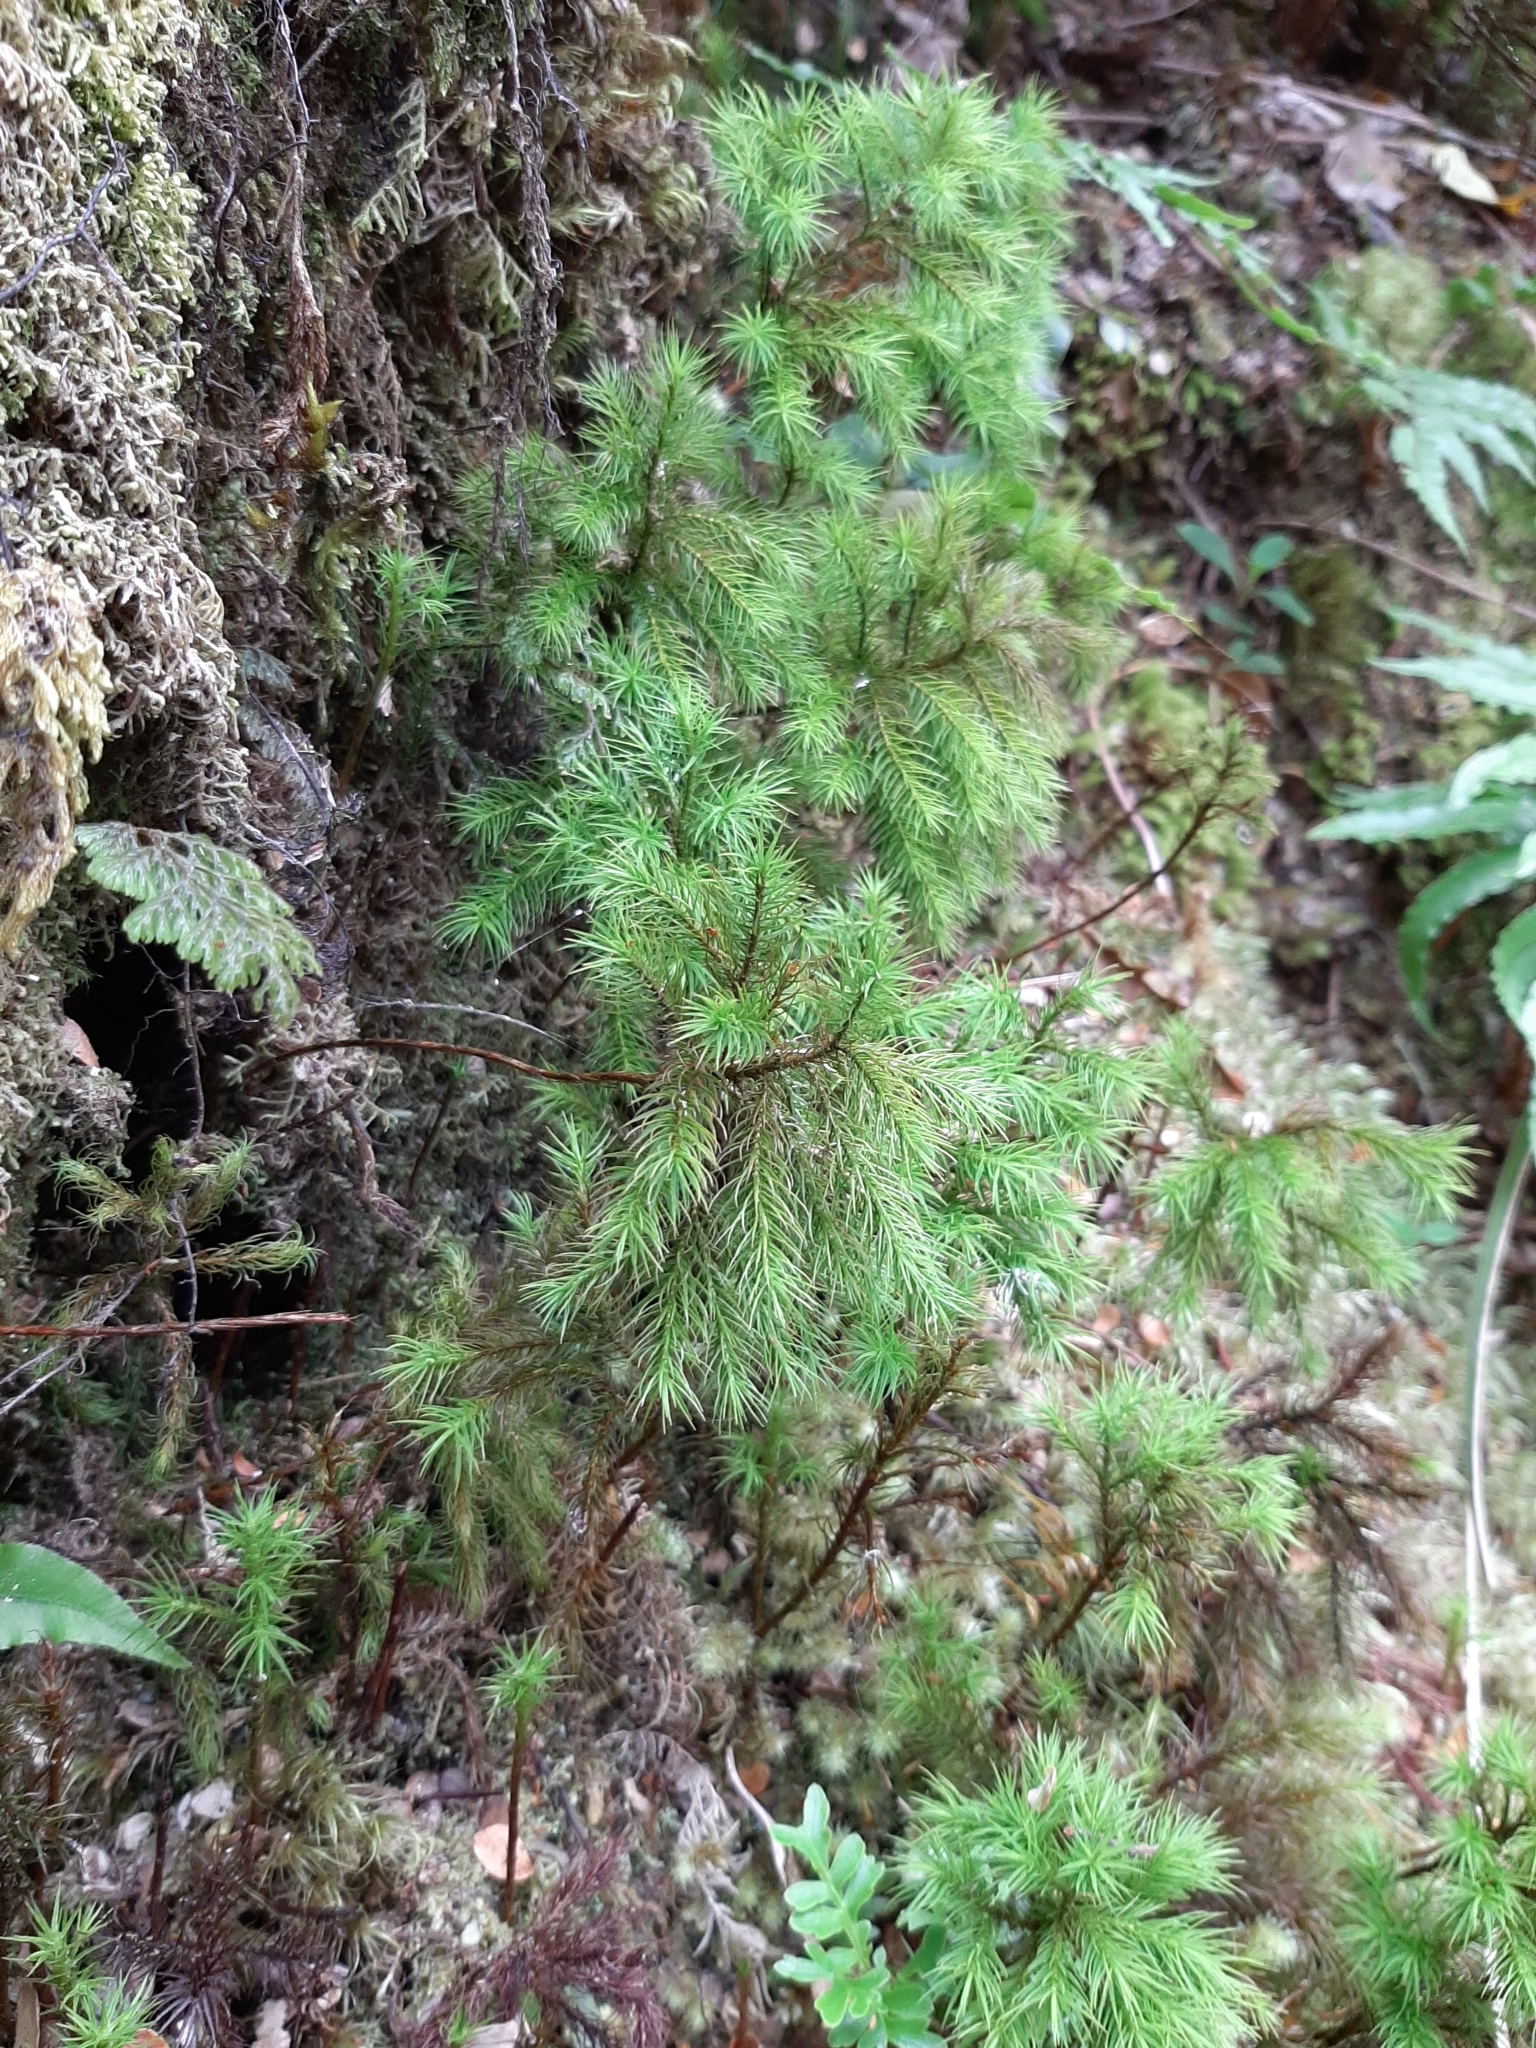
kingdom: Plantae
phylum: Bryophyta
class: Polytrichopsida
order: Polytrichales
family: Polytrichaceae
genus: Dendroligotrichum
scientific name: Dendroligotrichum tongariroense
